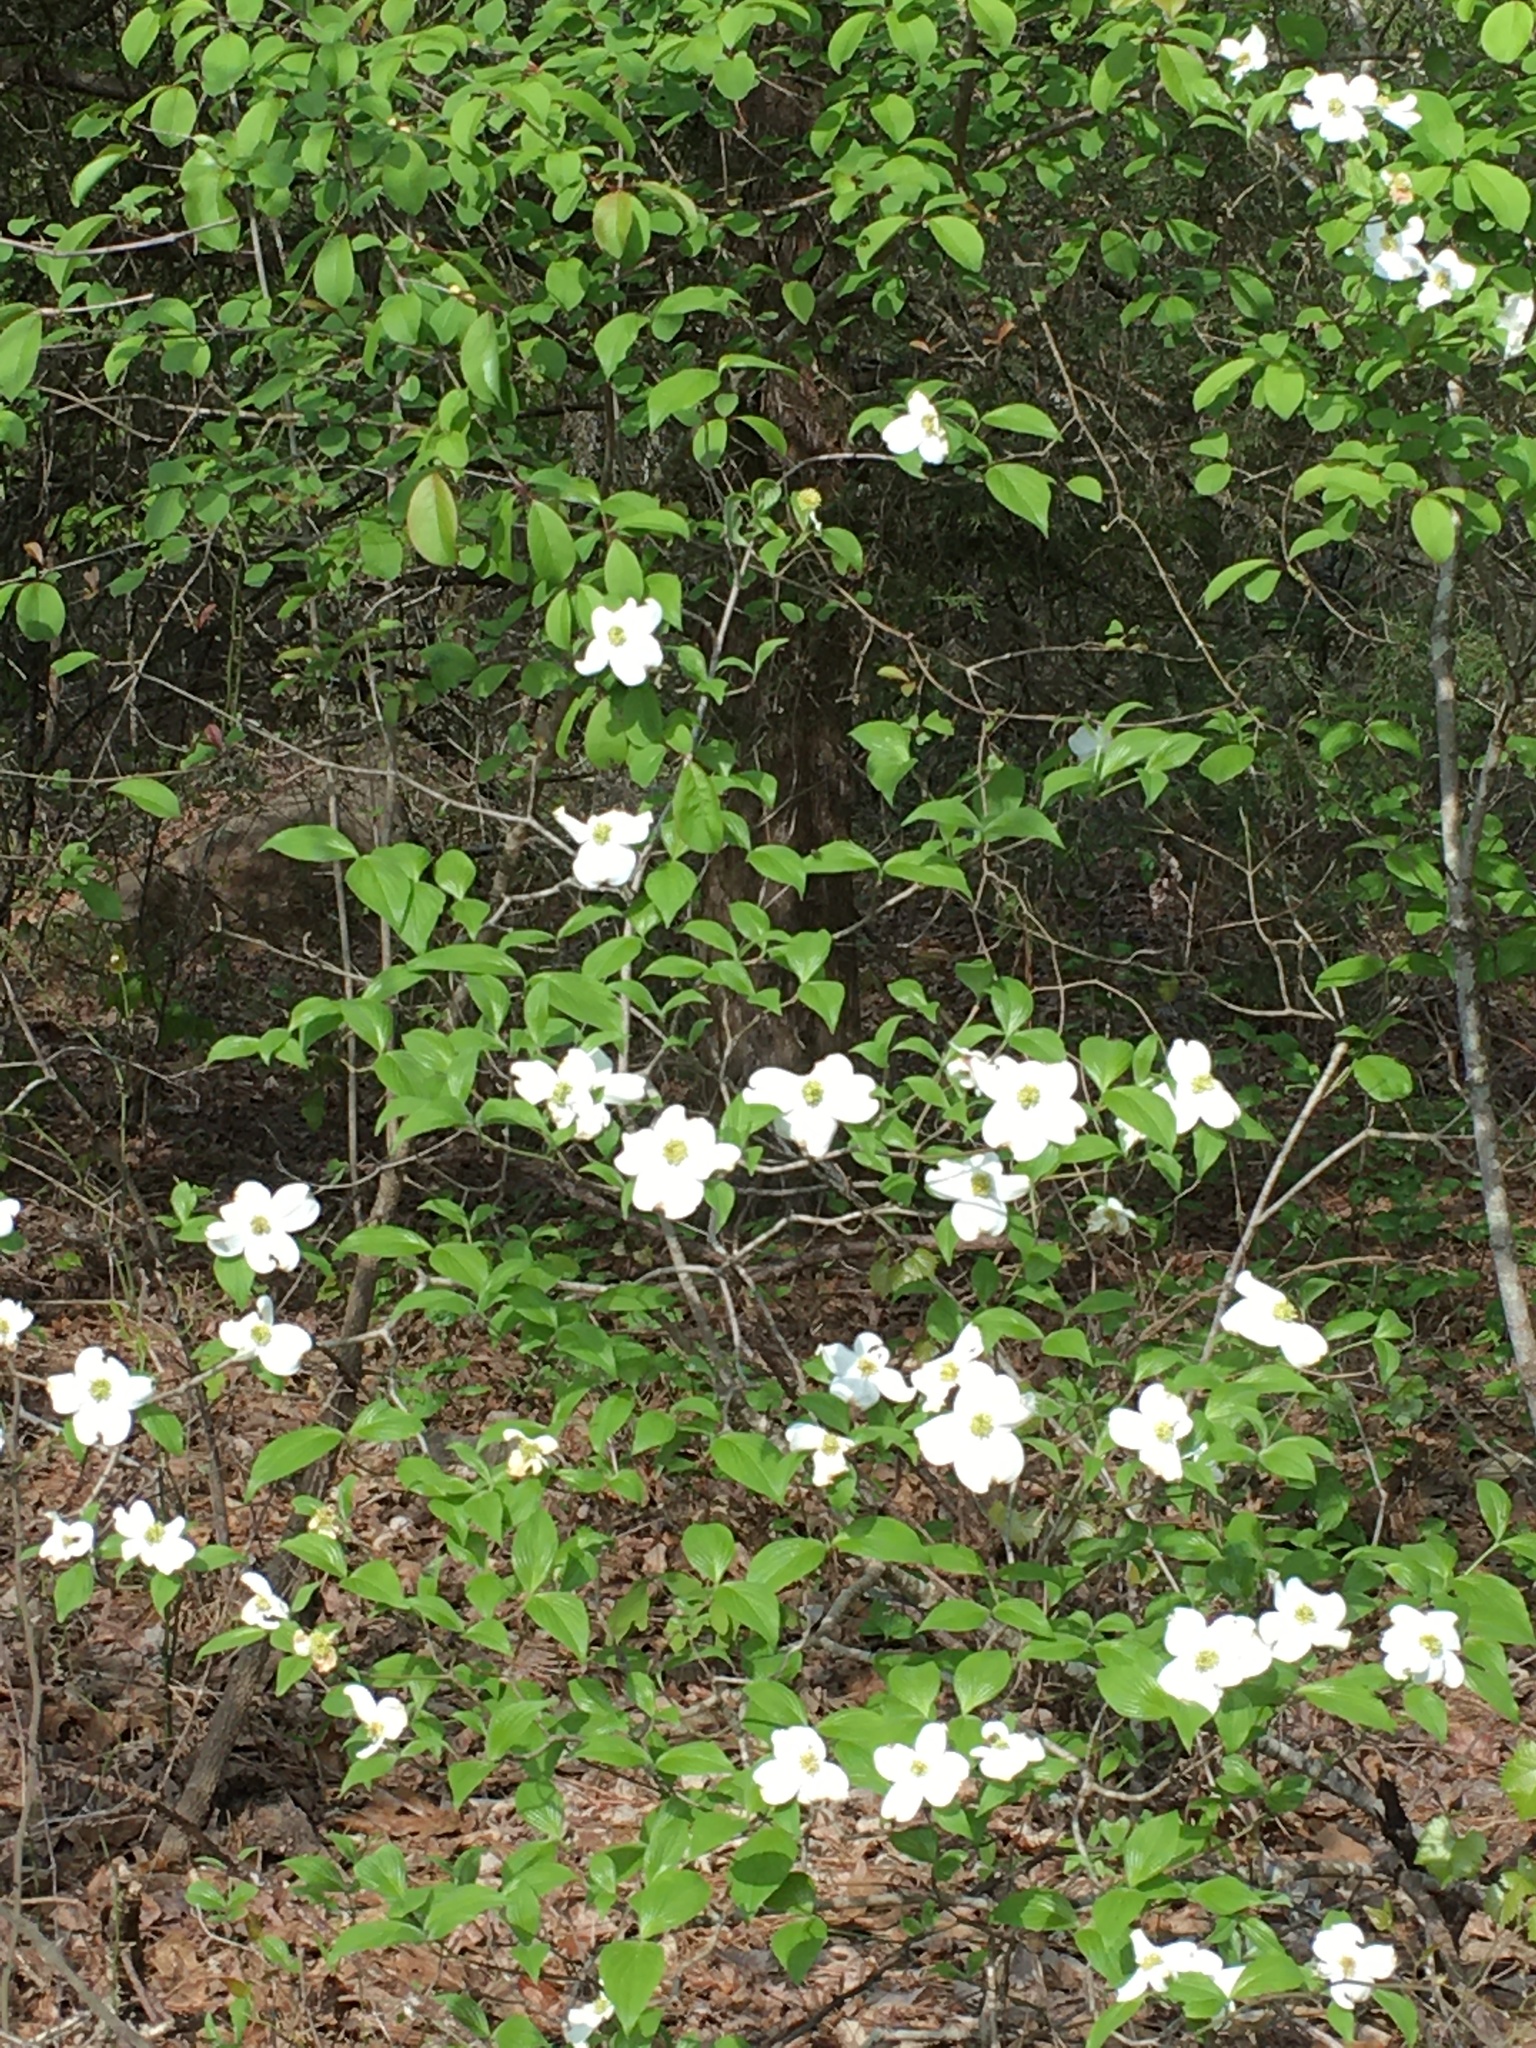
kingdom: Plantae
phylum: Tracheophyta
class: Magnoliopsida
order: Cornales
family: Cornaceae
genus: Cornus
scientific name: Cornus florida
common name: Flowering dogwood
